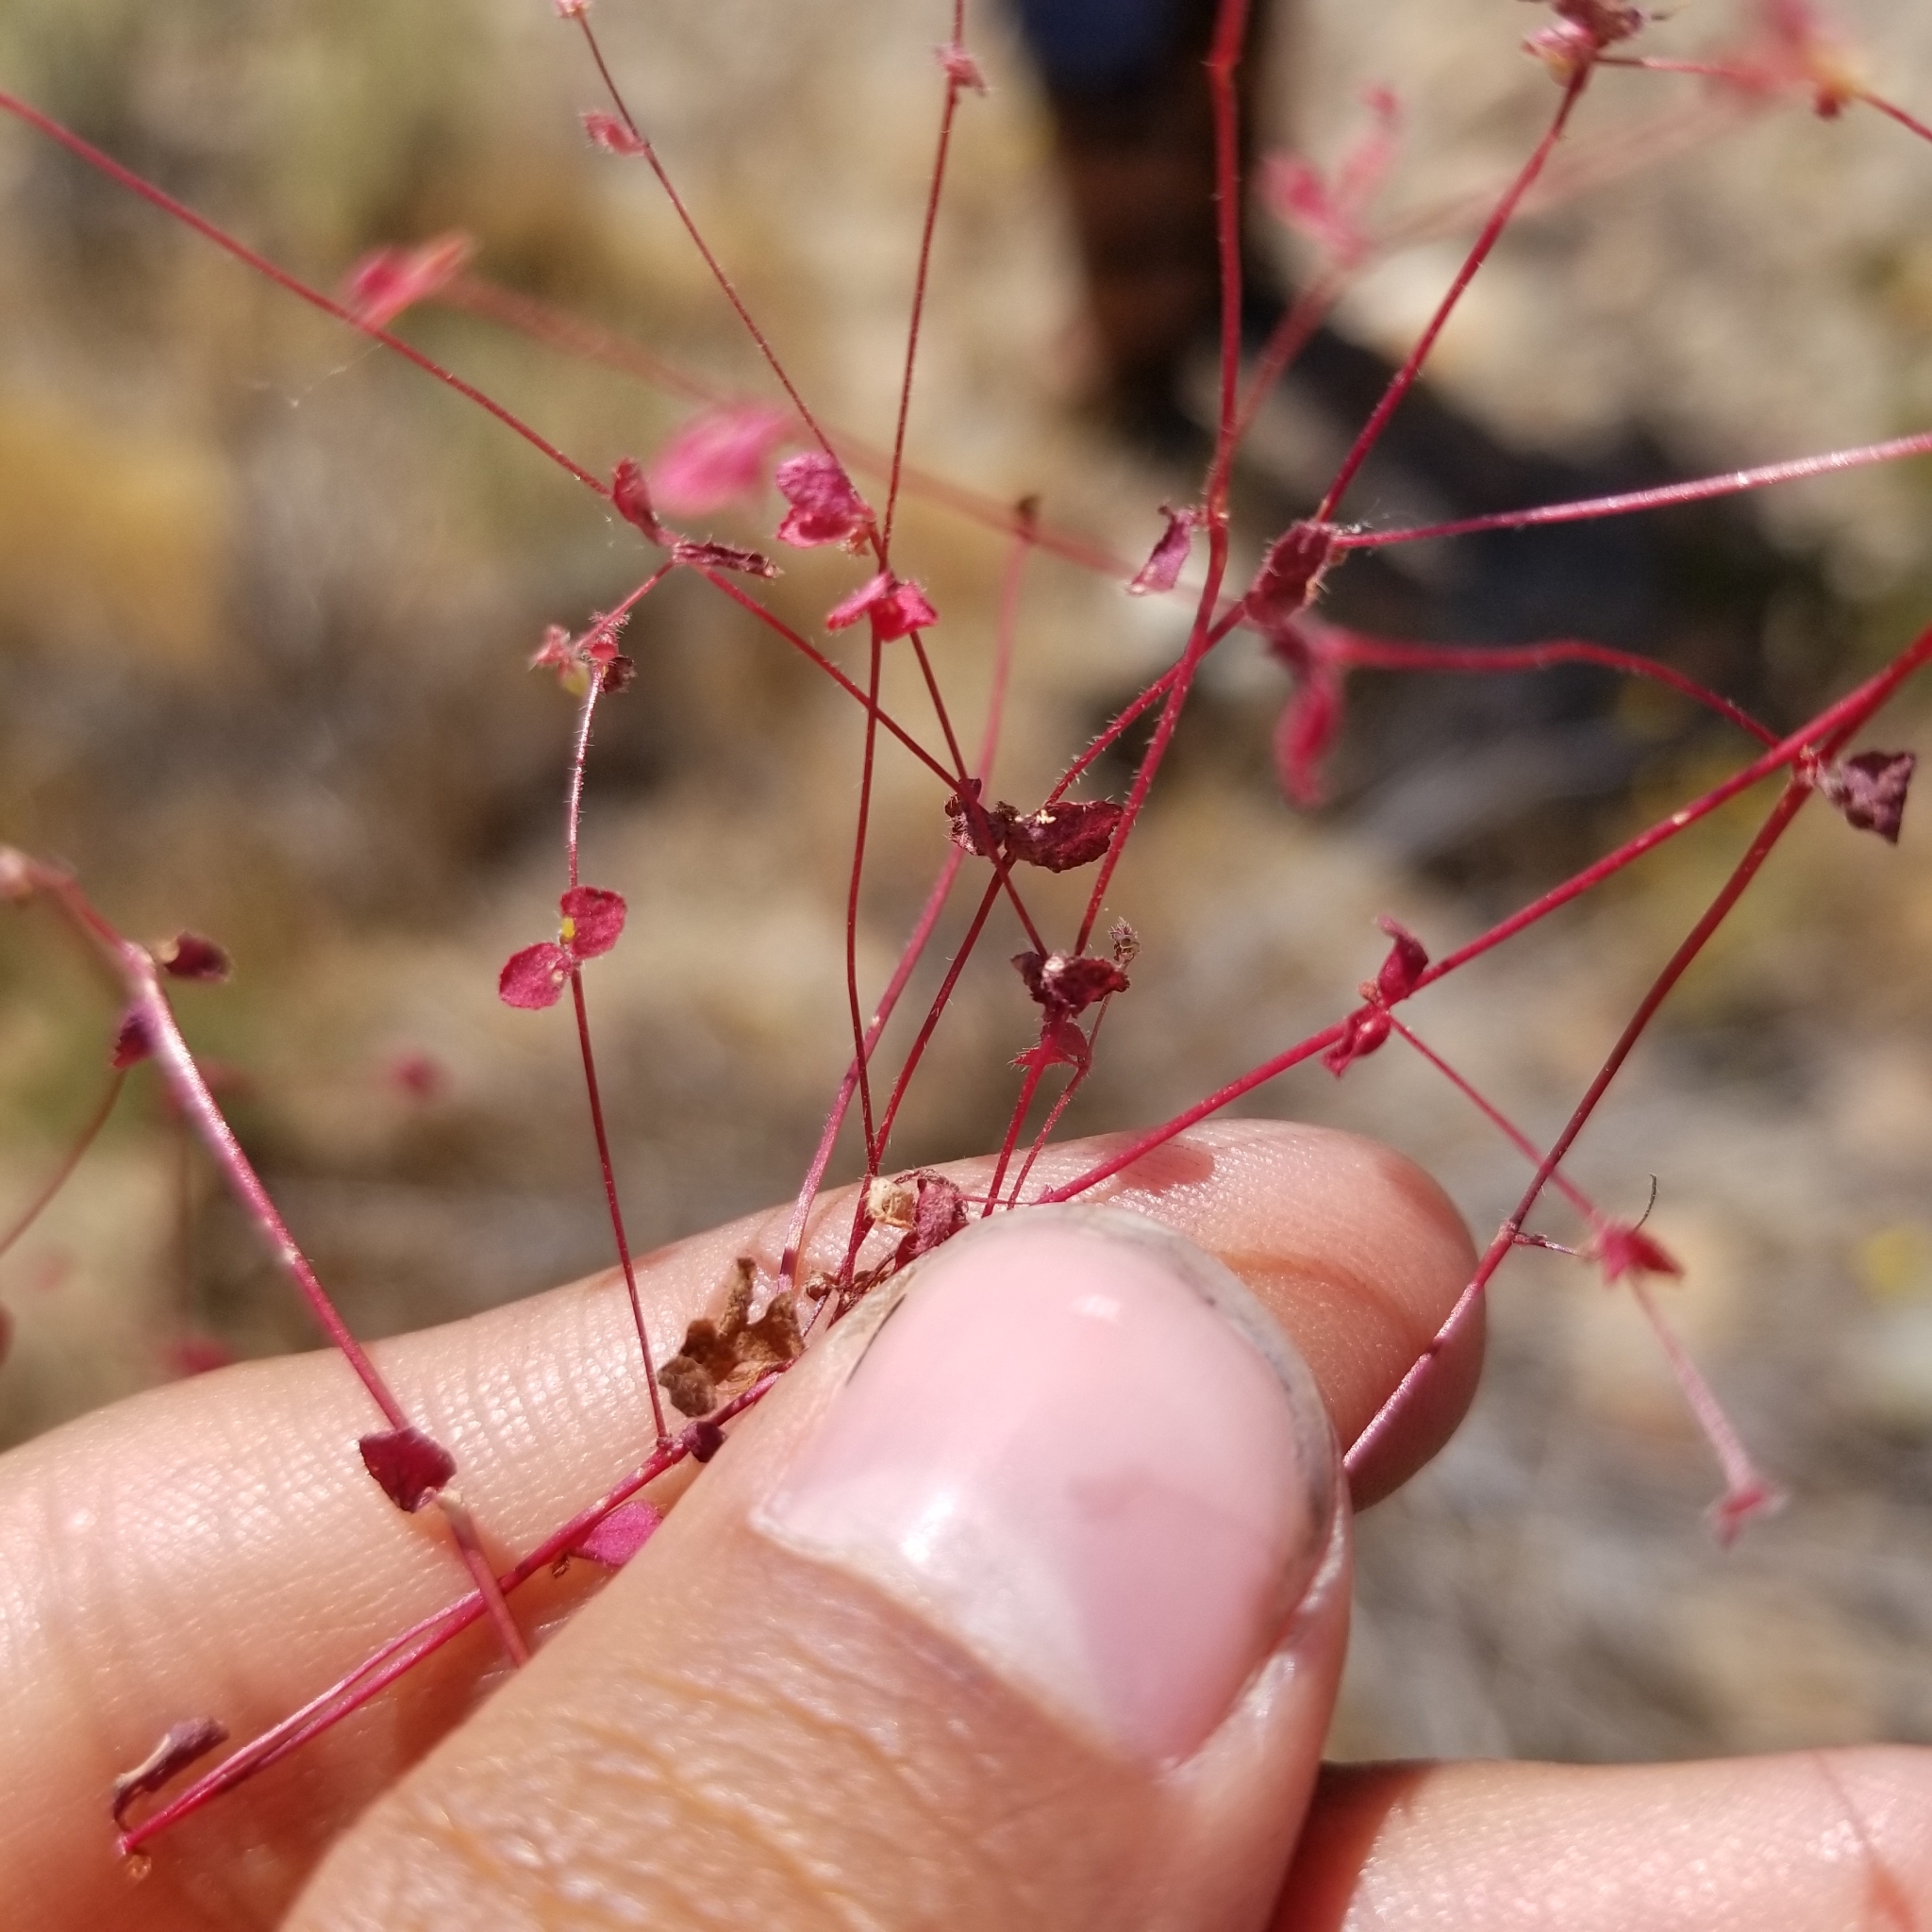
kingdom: Plantae
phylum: Tracheophyta
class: Magnoliopsida
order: Caryophyllales
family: Polygonaceae
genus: Pterostegia
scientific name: Pterostegia drymarioides
